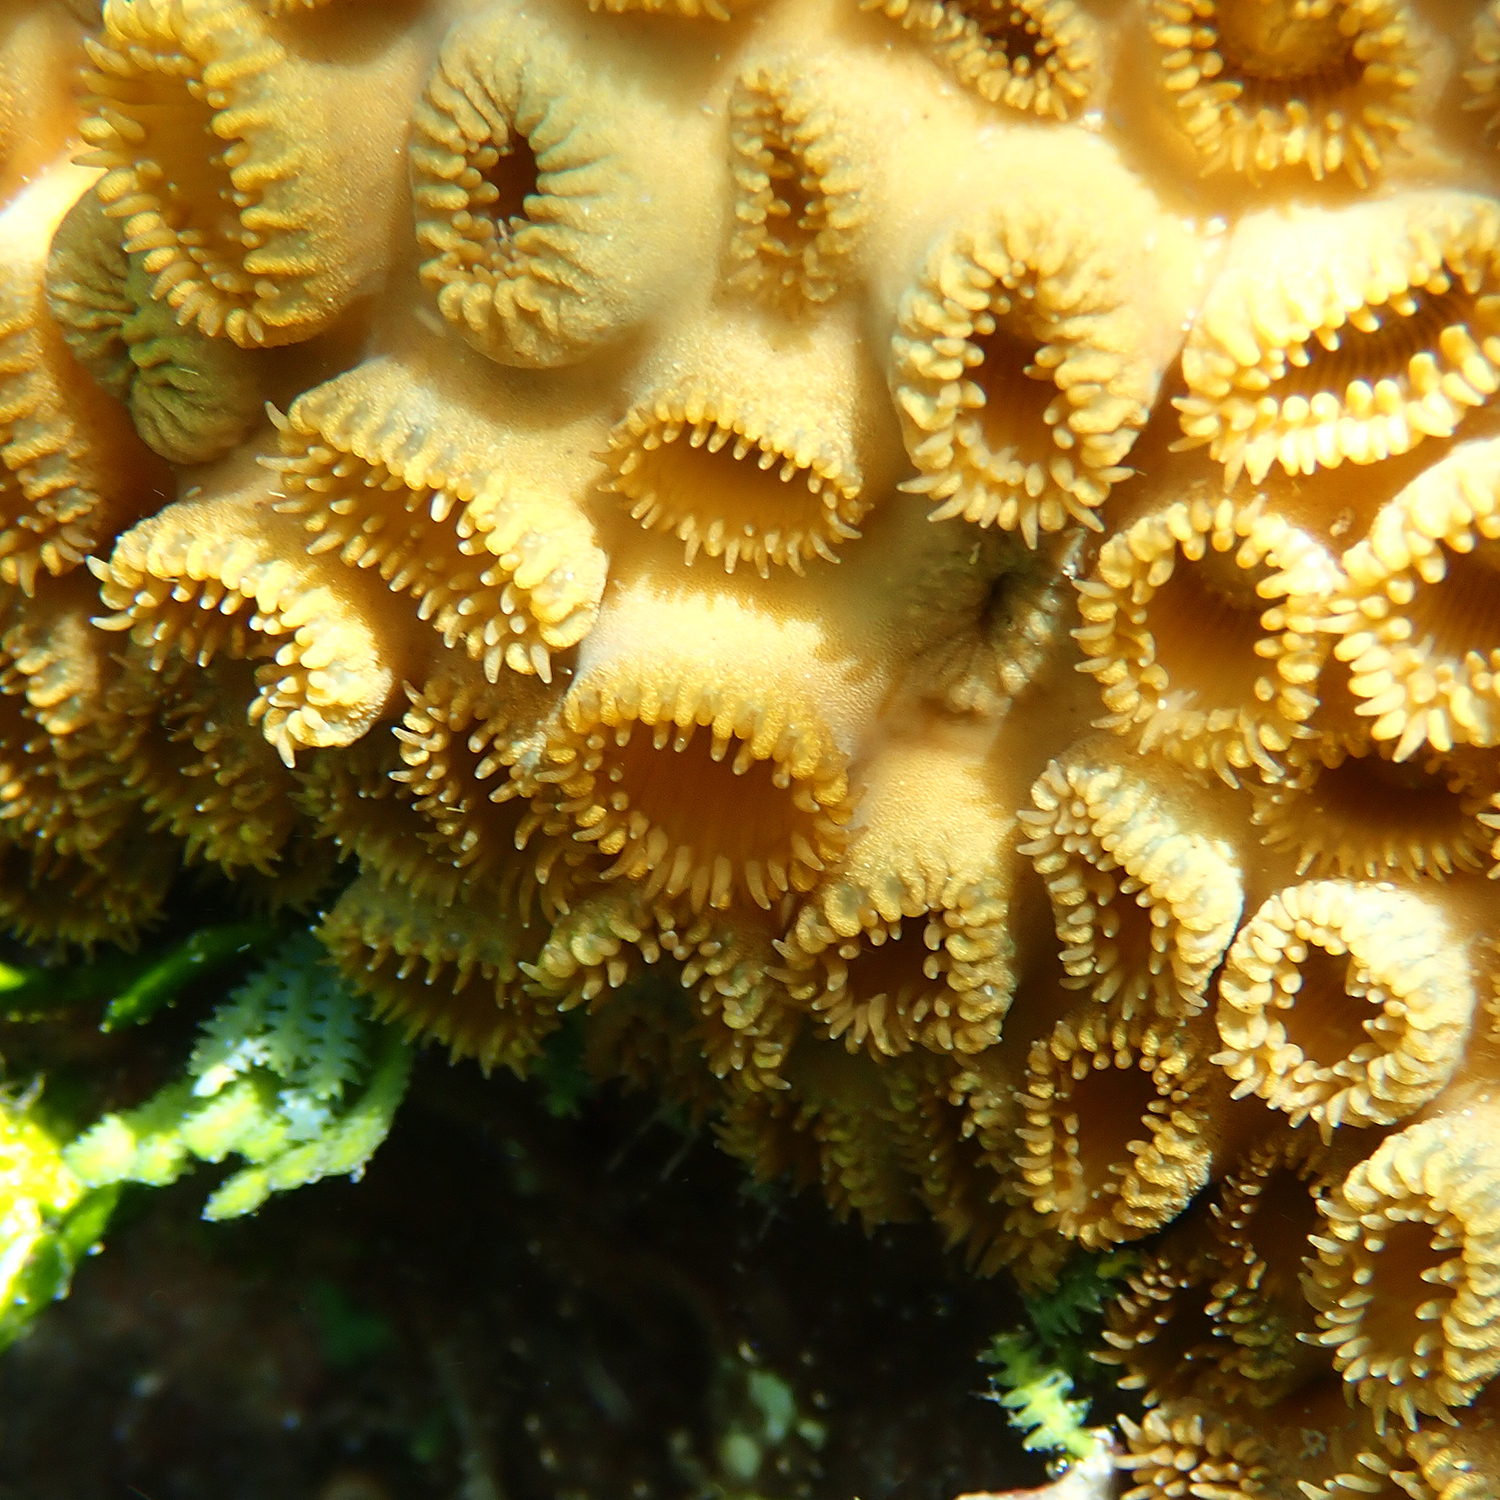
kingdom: Animalia
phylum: Cnidaria
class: Anthozoa
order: Zoantharia
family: Sphenopidae
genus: Palythoa
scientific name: Palythoa tuberculosa
